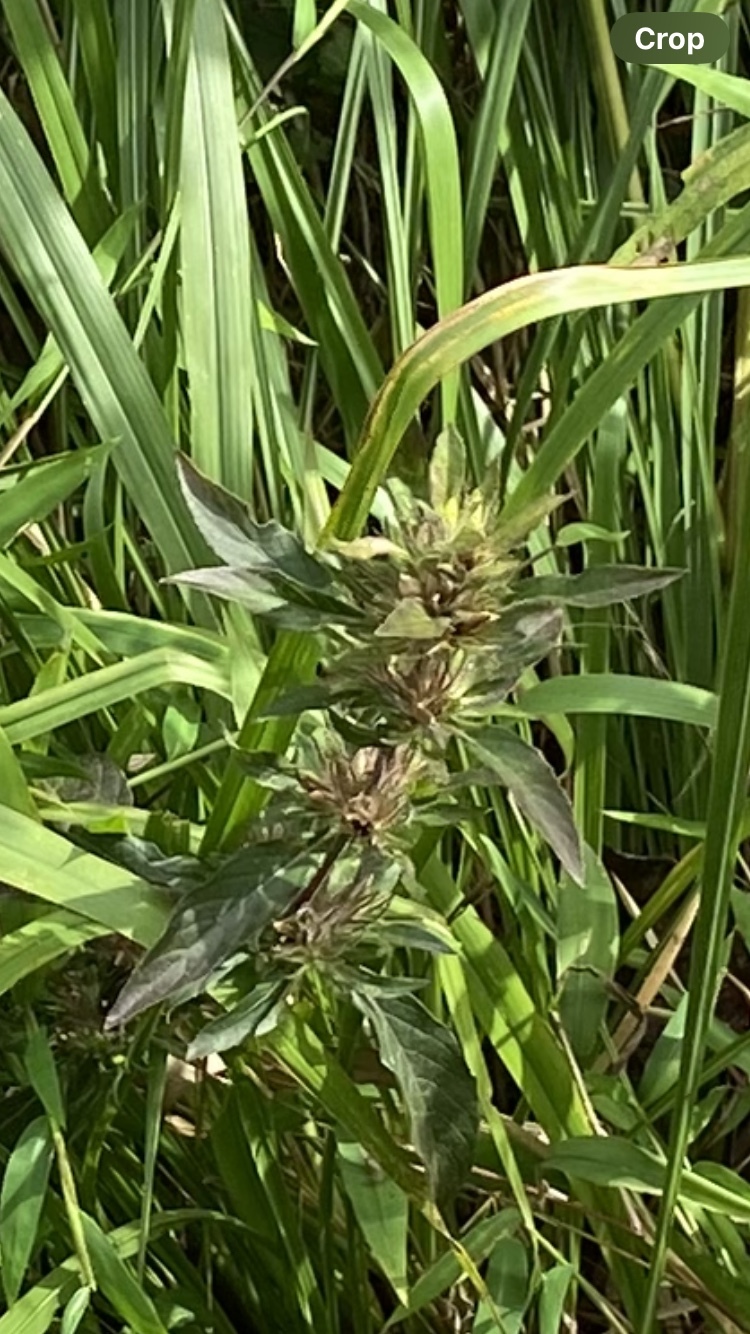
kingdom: Plantae
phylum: Tracheophyta
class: Magnoliopsida
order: Lamiales
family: Acanthaceae
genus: Ruellia
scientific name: Ruellia caroliniensis
